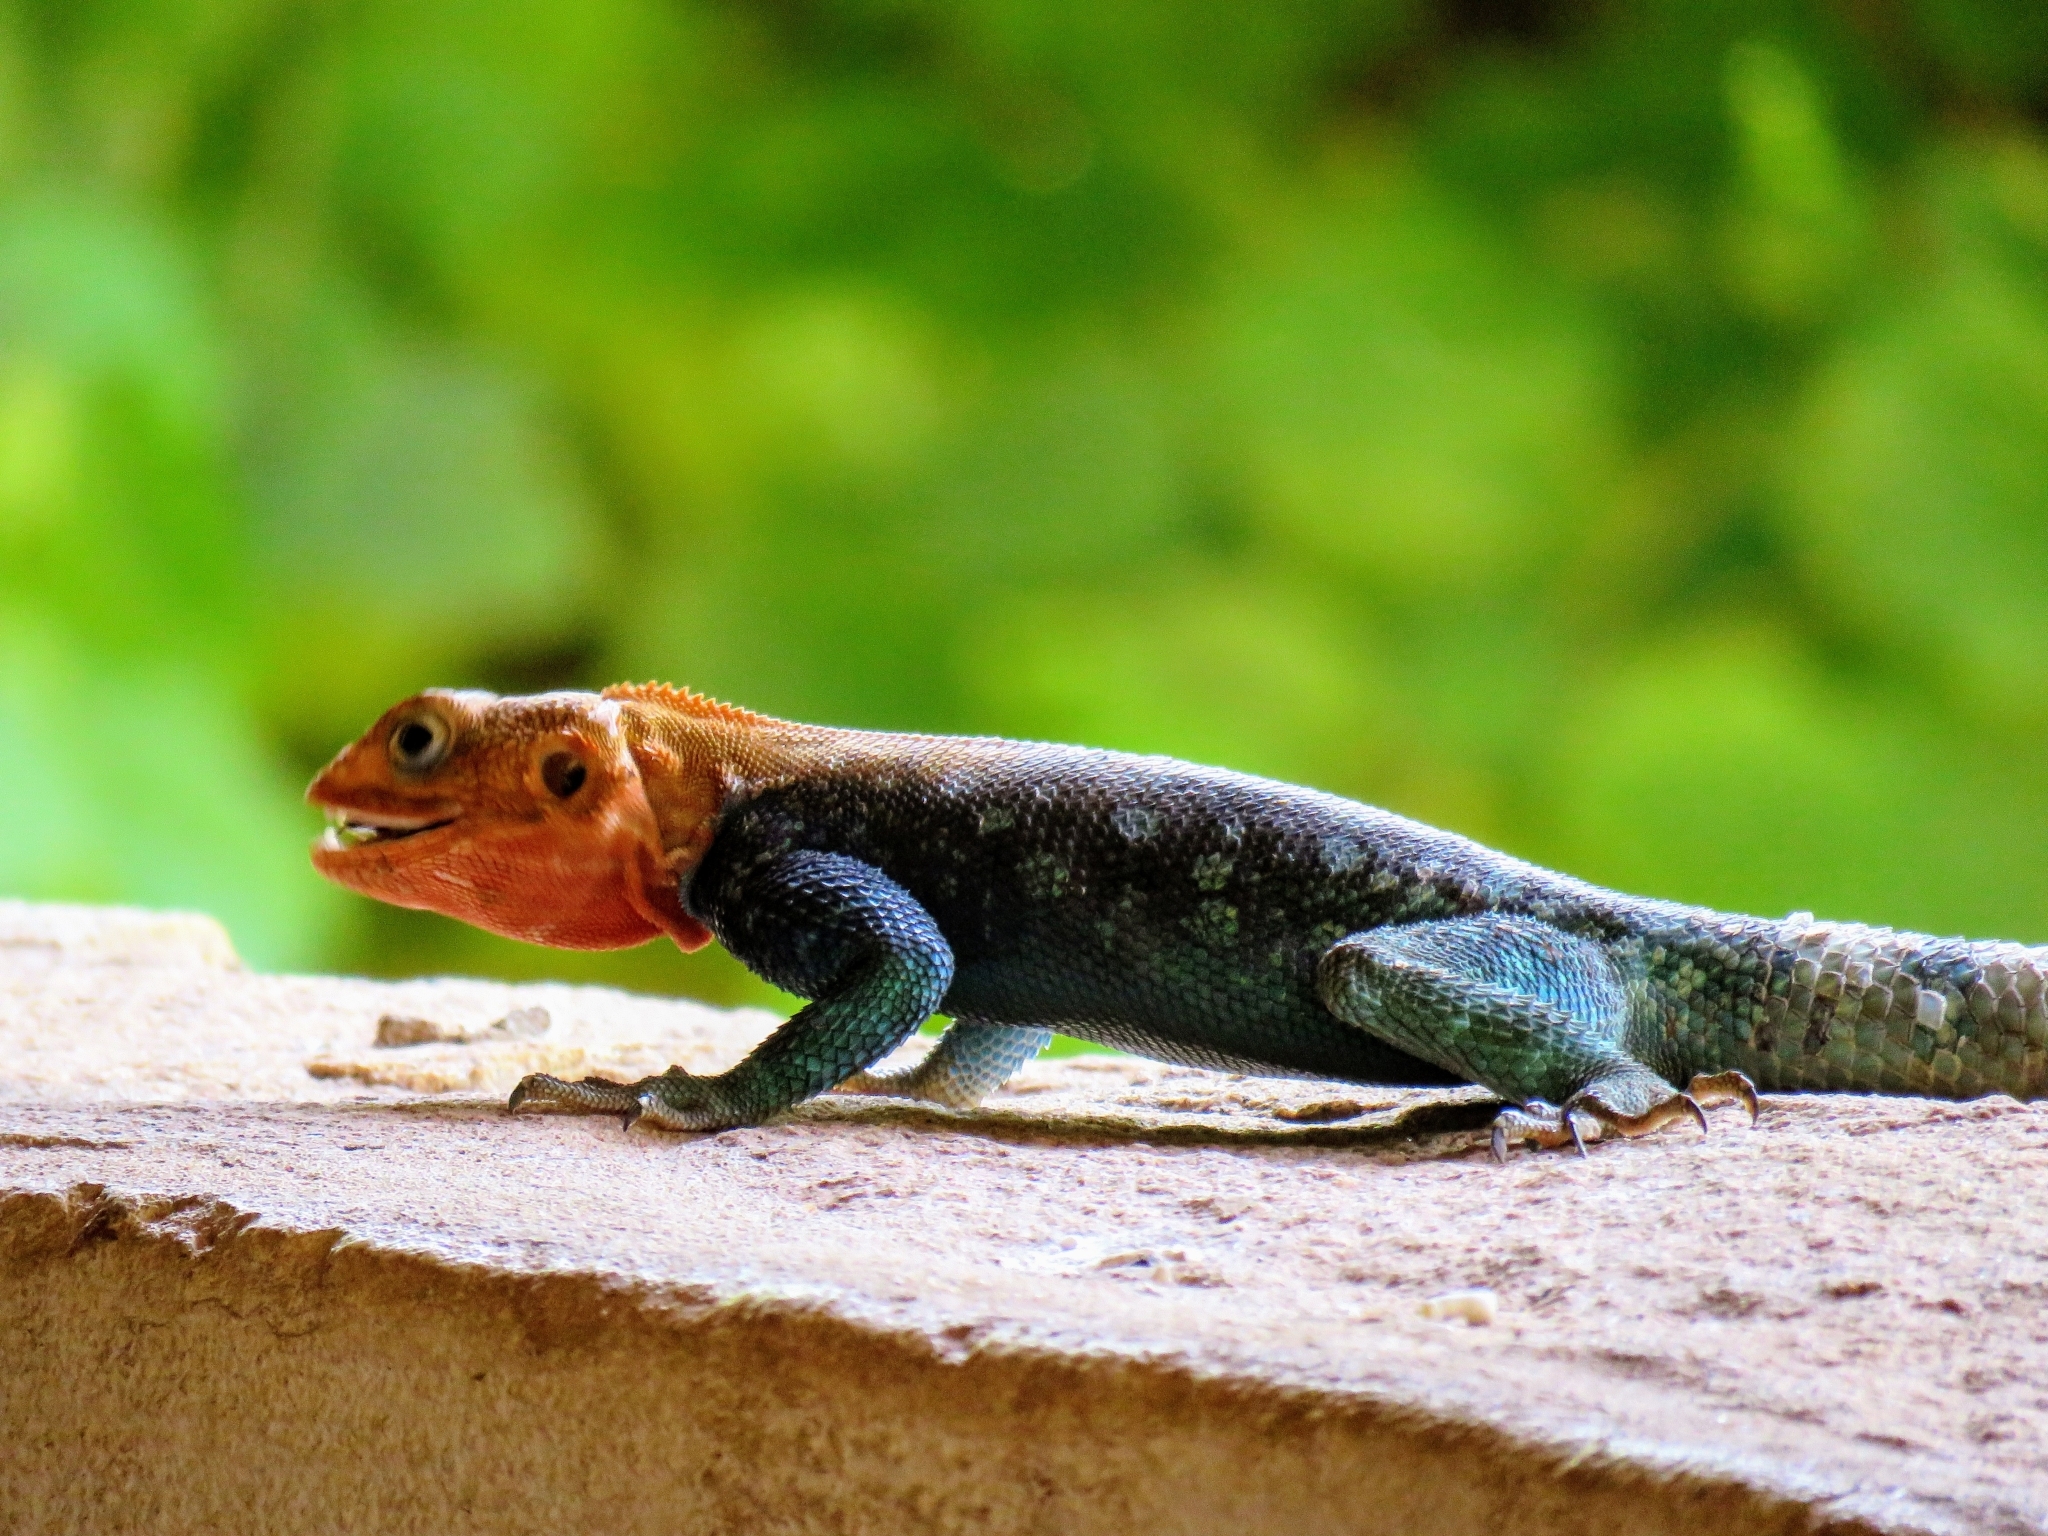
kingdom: Animalia
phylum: Chordata
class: Squamata
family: Agamidae
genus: Agama
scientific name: Agama lionotus
